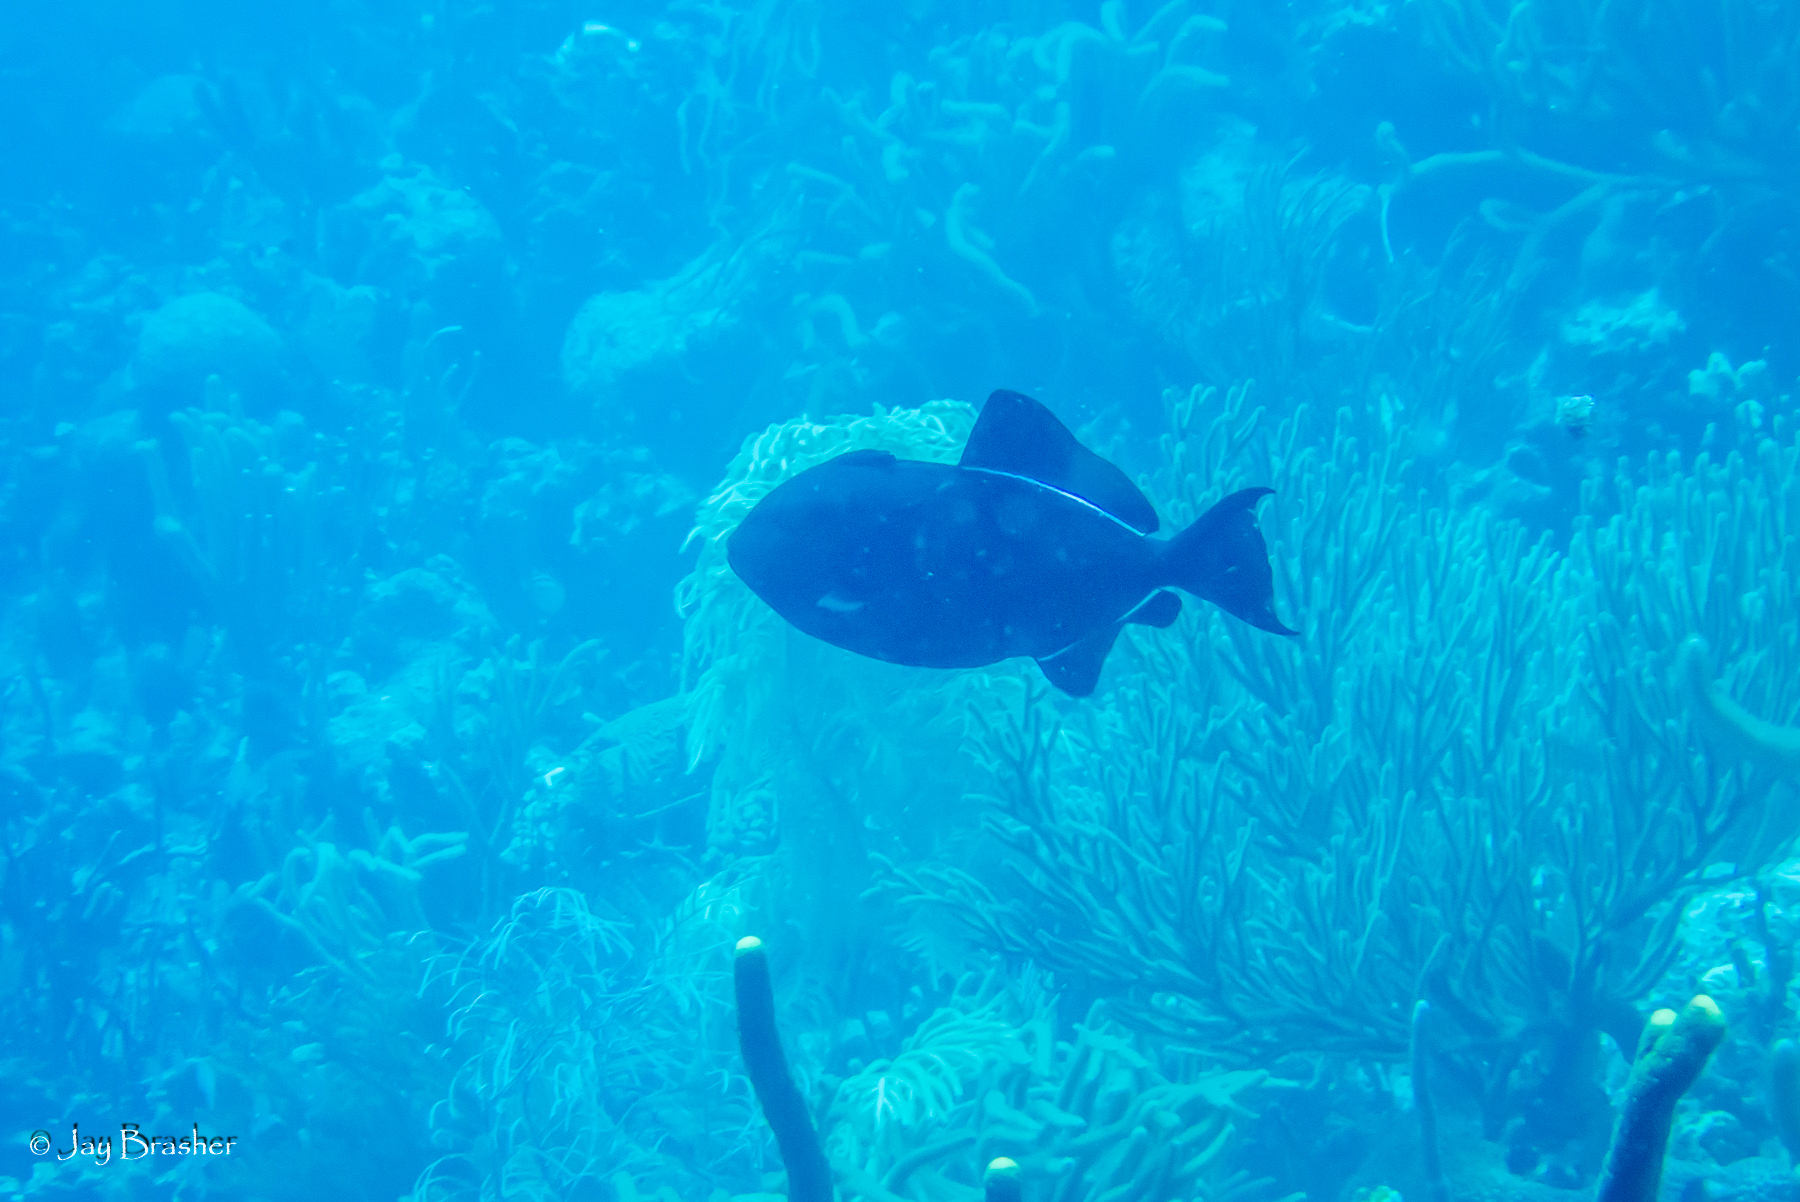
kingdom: Animalia
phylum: Chordata
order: Tetraodontiformes
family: Balistidae
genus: Melichthys
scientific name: Melichthys niger
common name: Black durgon
